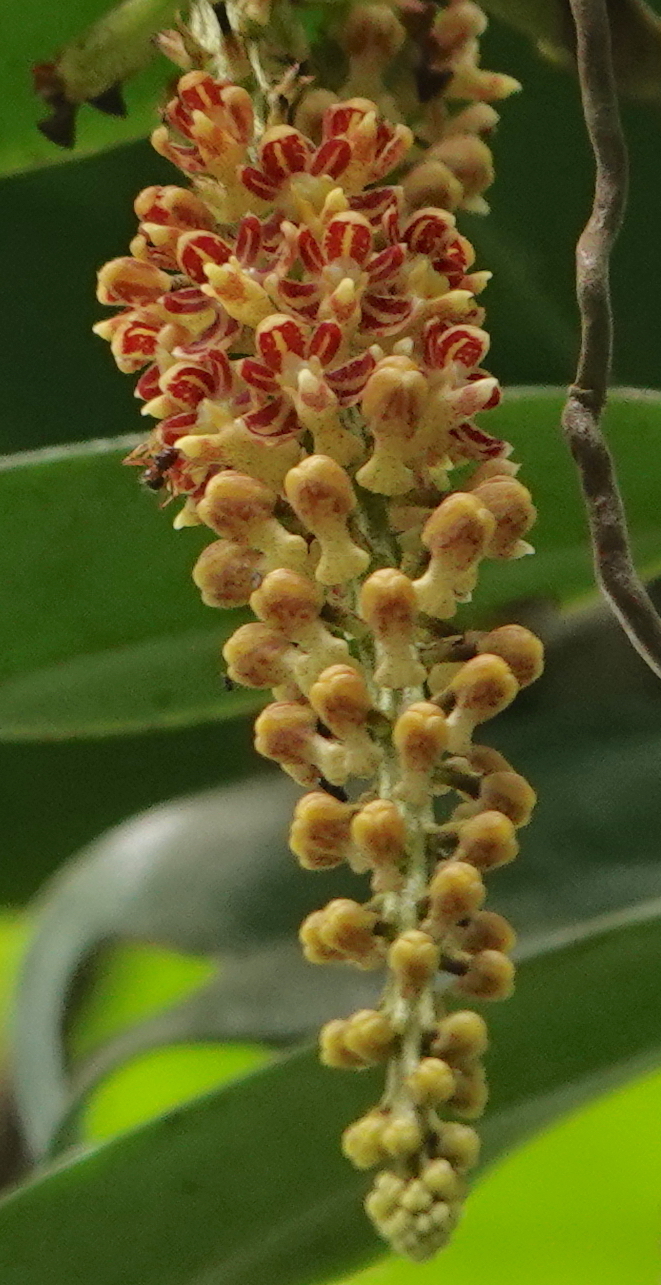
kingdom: Plantae
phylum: Tracheophyta
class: Liliopsida
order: Asparagales
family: Orchidaceae
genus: Robiquetia
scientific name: Robiquetia spathulata
